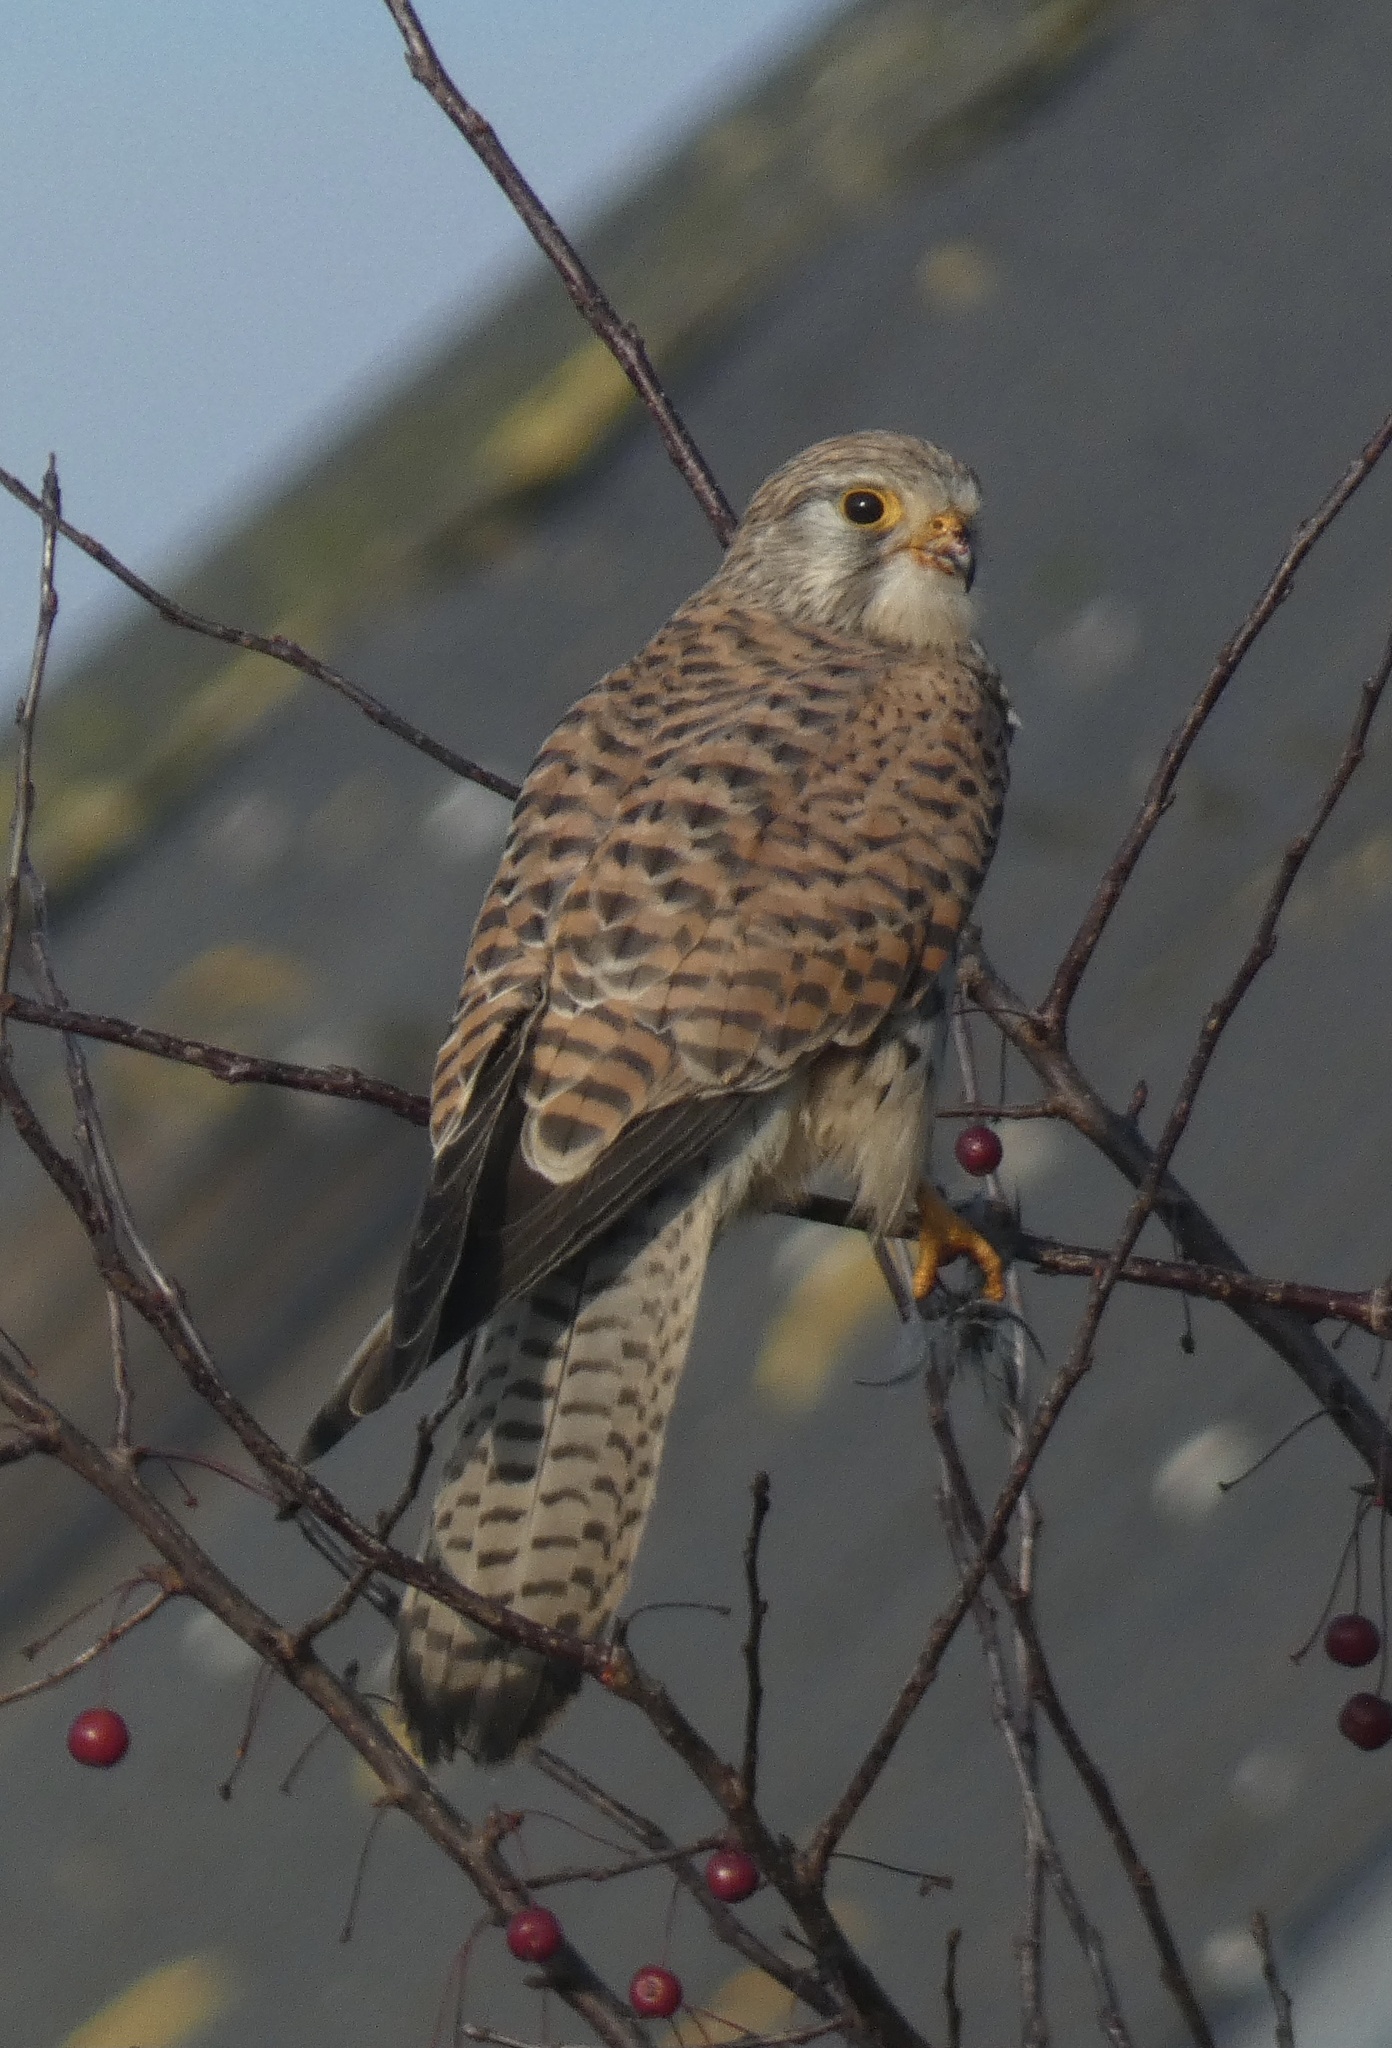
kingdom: Animalia
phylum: Chordata
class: Aves
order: Falconiformes
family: Falconidae
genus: Falco
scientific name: Falco tinnunculus
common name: Common kestrel
